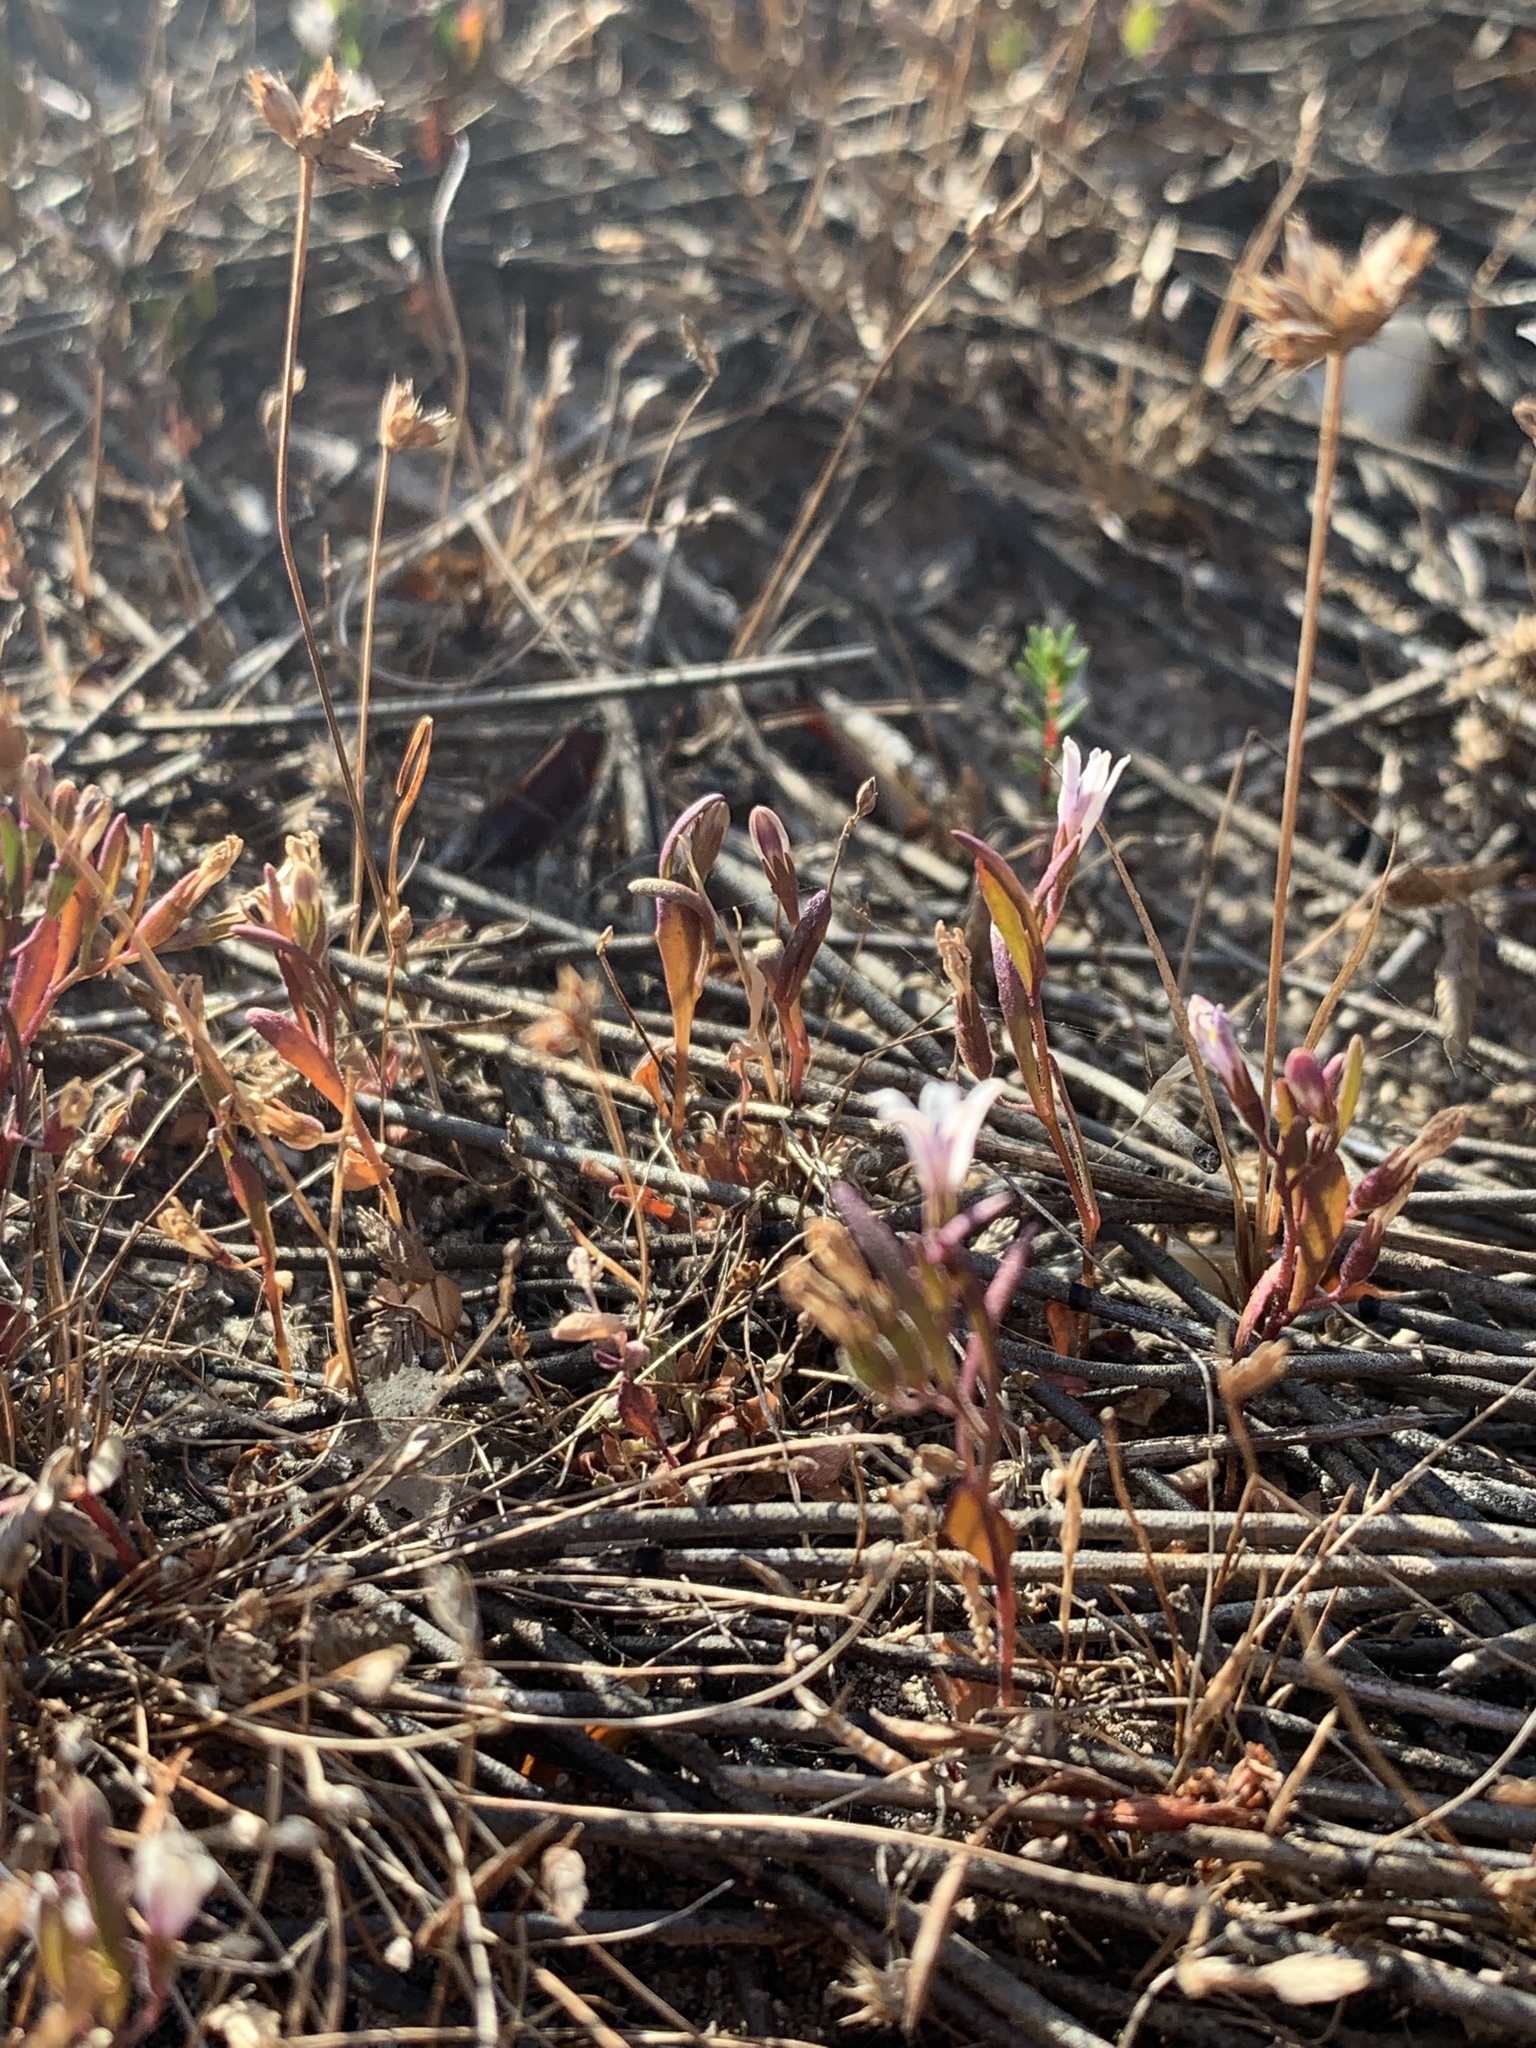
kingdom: Plantae
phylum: Tracheophyta
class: Magnoliopsida
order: Asterales
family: Campanulaceae
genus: Wimmerella
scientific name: Wimmerella secunda
